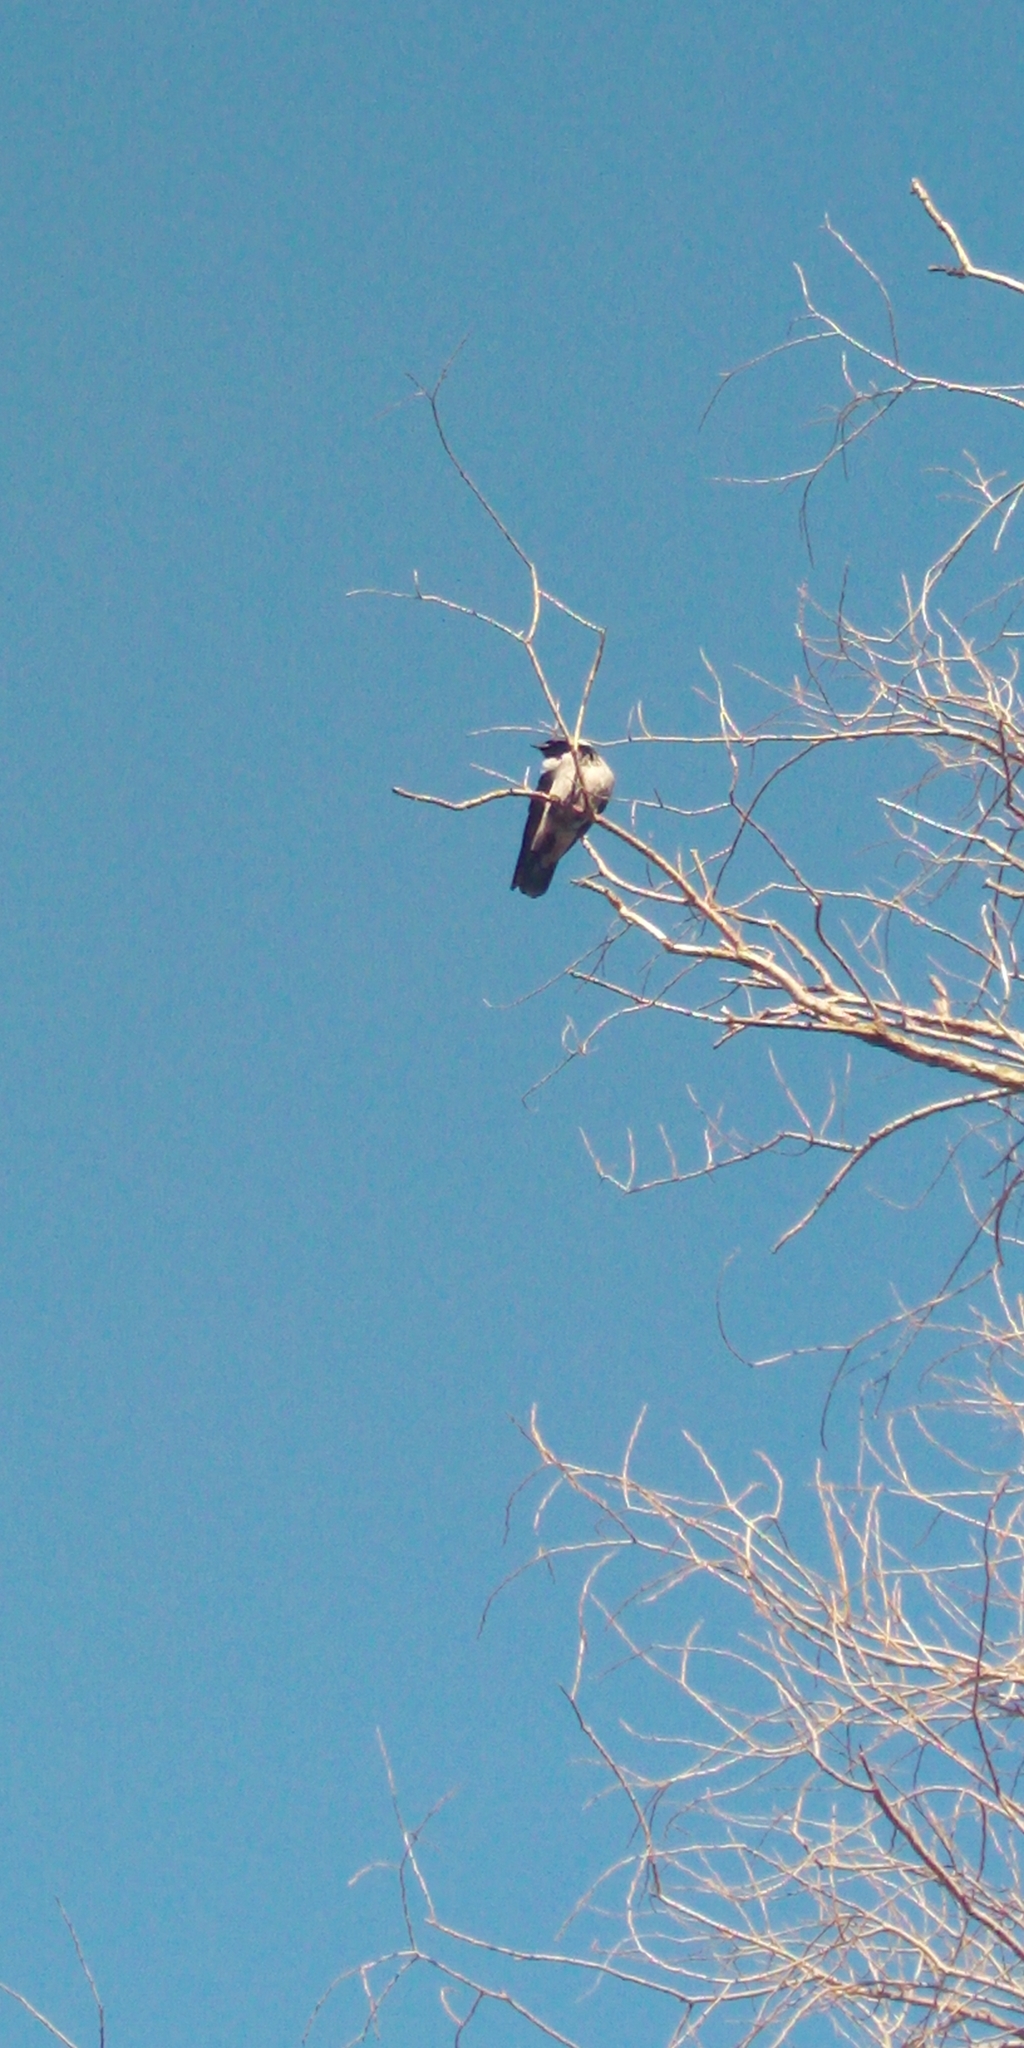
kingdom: Animalia
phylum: Chordata
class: Aves
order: Passeriformes
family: Corvidae
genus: Corvus
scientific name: Corvus cornix
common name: Hooded crow
